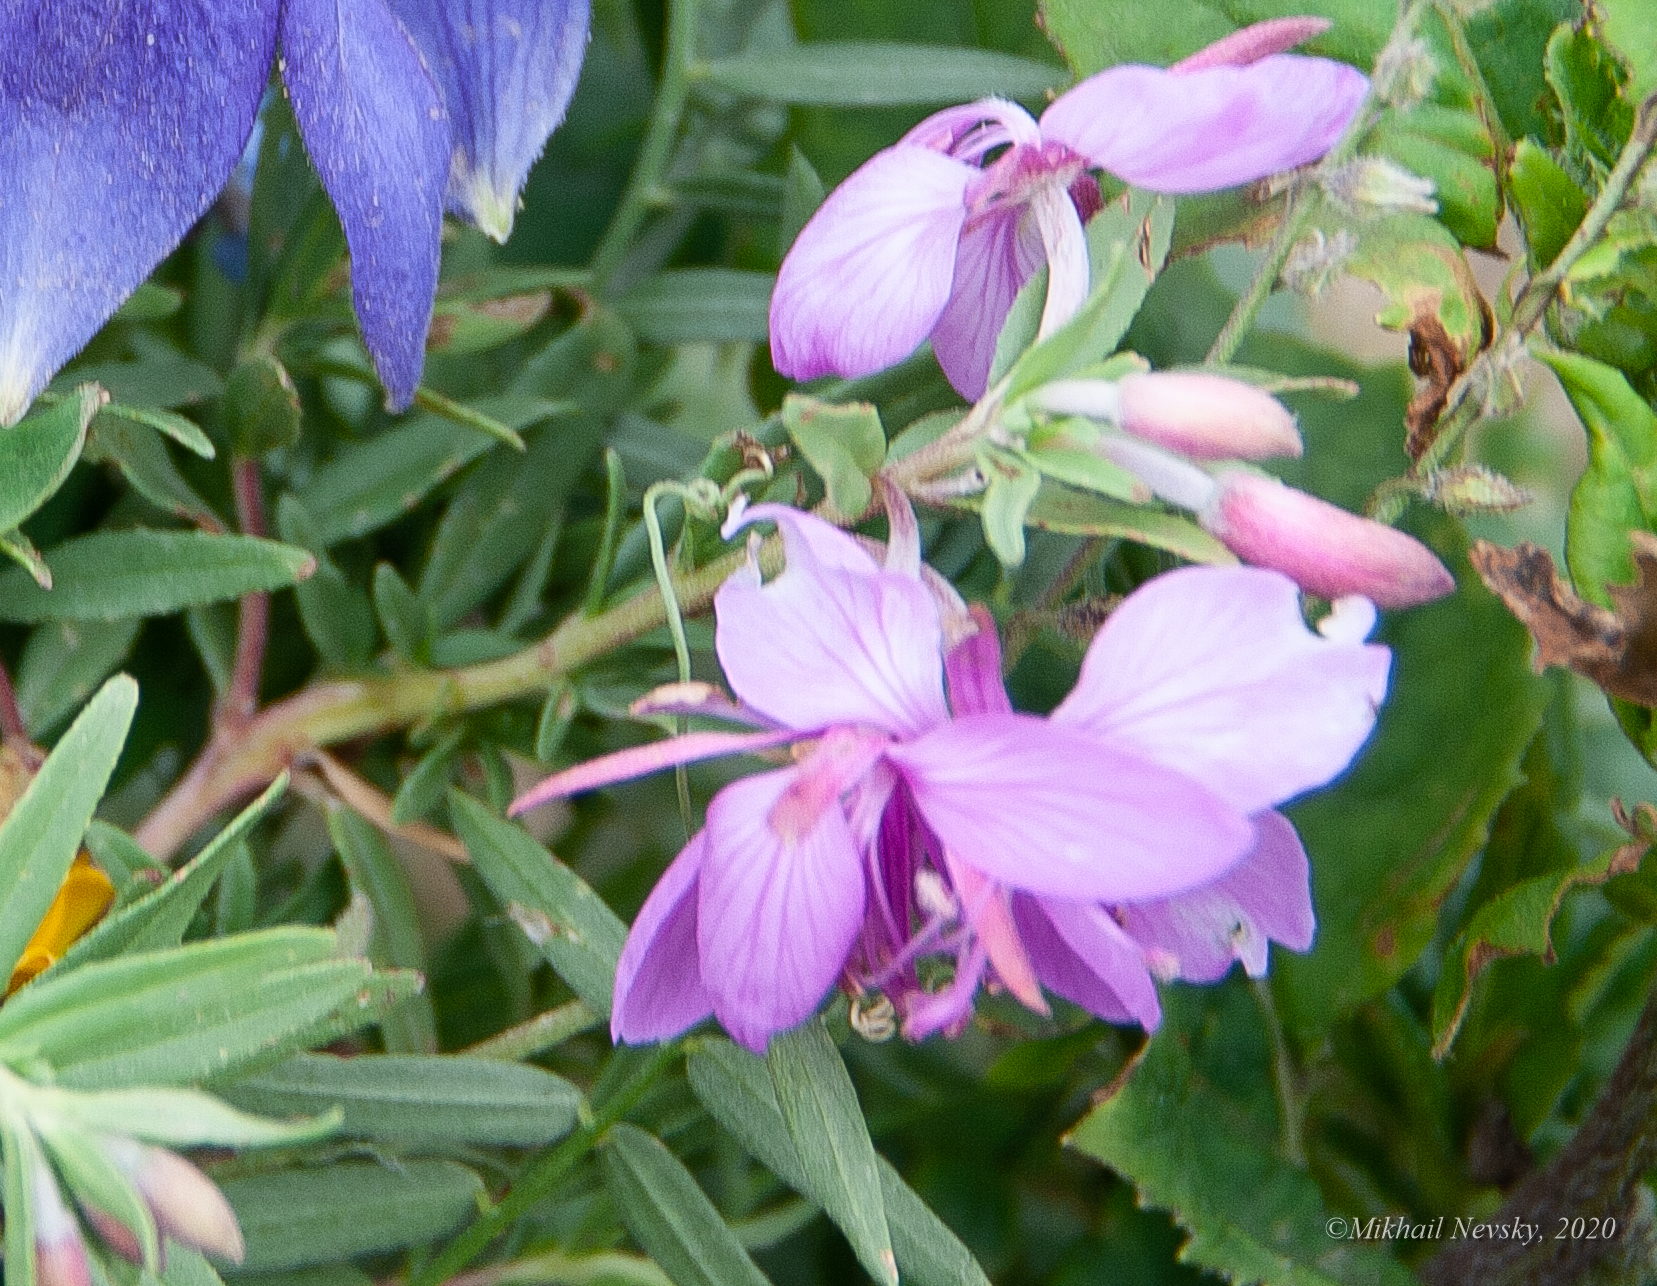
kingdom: Plantae
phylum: Tracheophyta
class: Magnoliopsida
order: Myrtales
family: Onagraceae
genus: Chamaenerion
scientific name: Chamaenerion colchicum
